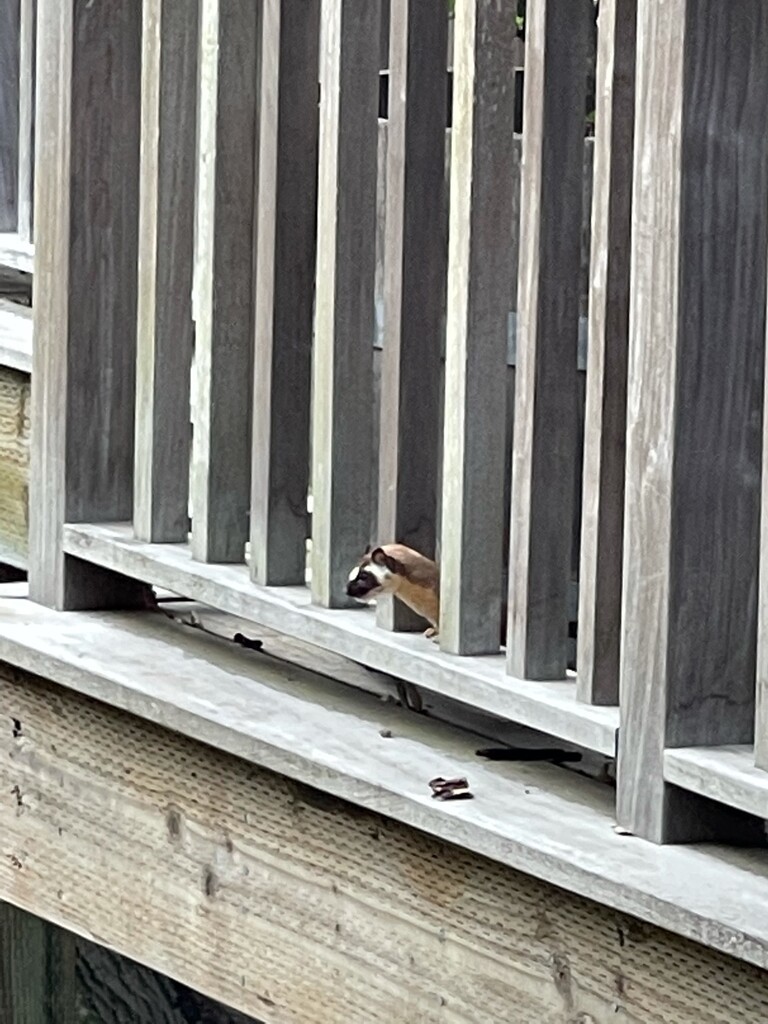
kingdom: Animalia
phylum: Chordata
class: Mammalia
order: Carnivora
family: Mustelidae
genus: Mustela
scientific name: Mustela
